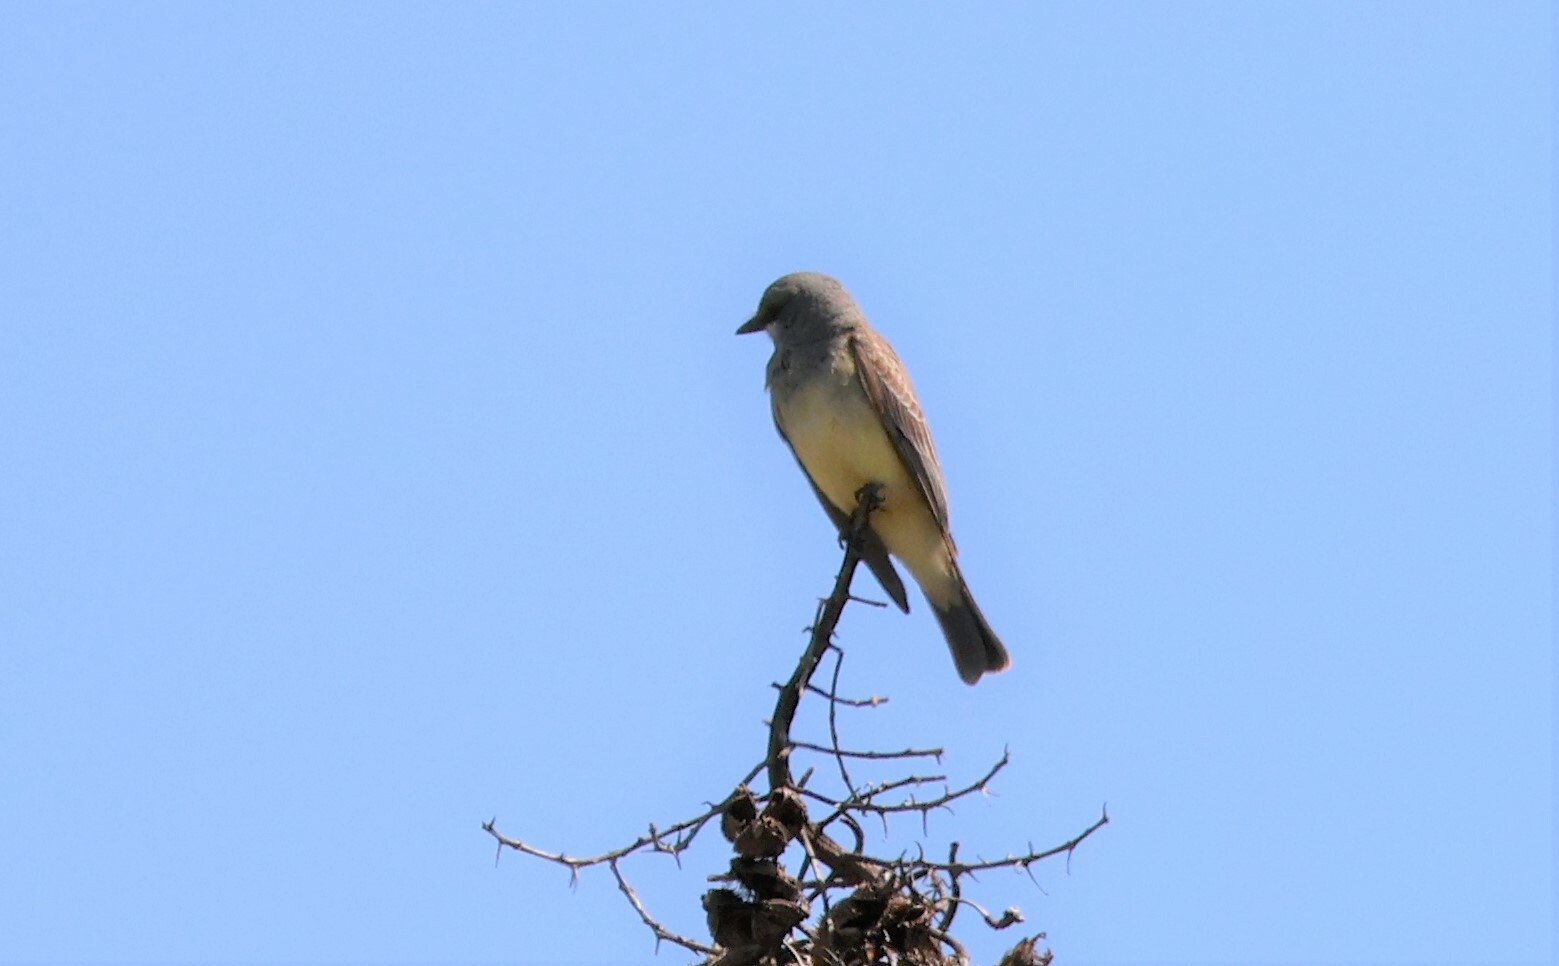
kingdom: Animalia
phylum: Chordata
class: Aves
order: Passeriformes
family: Tyrannidae
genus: Tyrannus
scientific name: Tyrannus vociferans
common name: Cassin's kingbird
